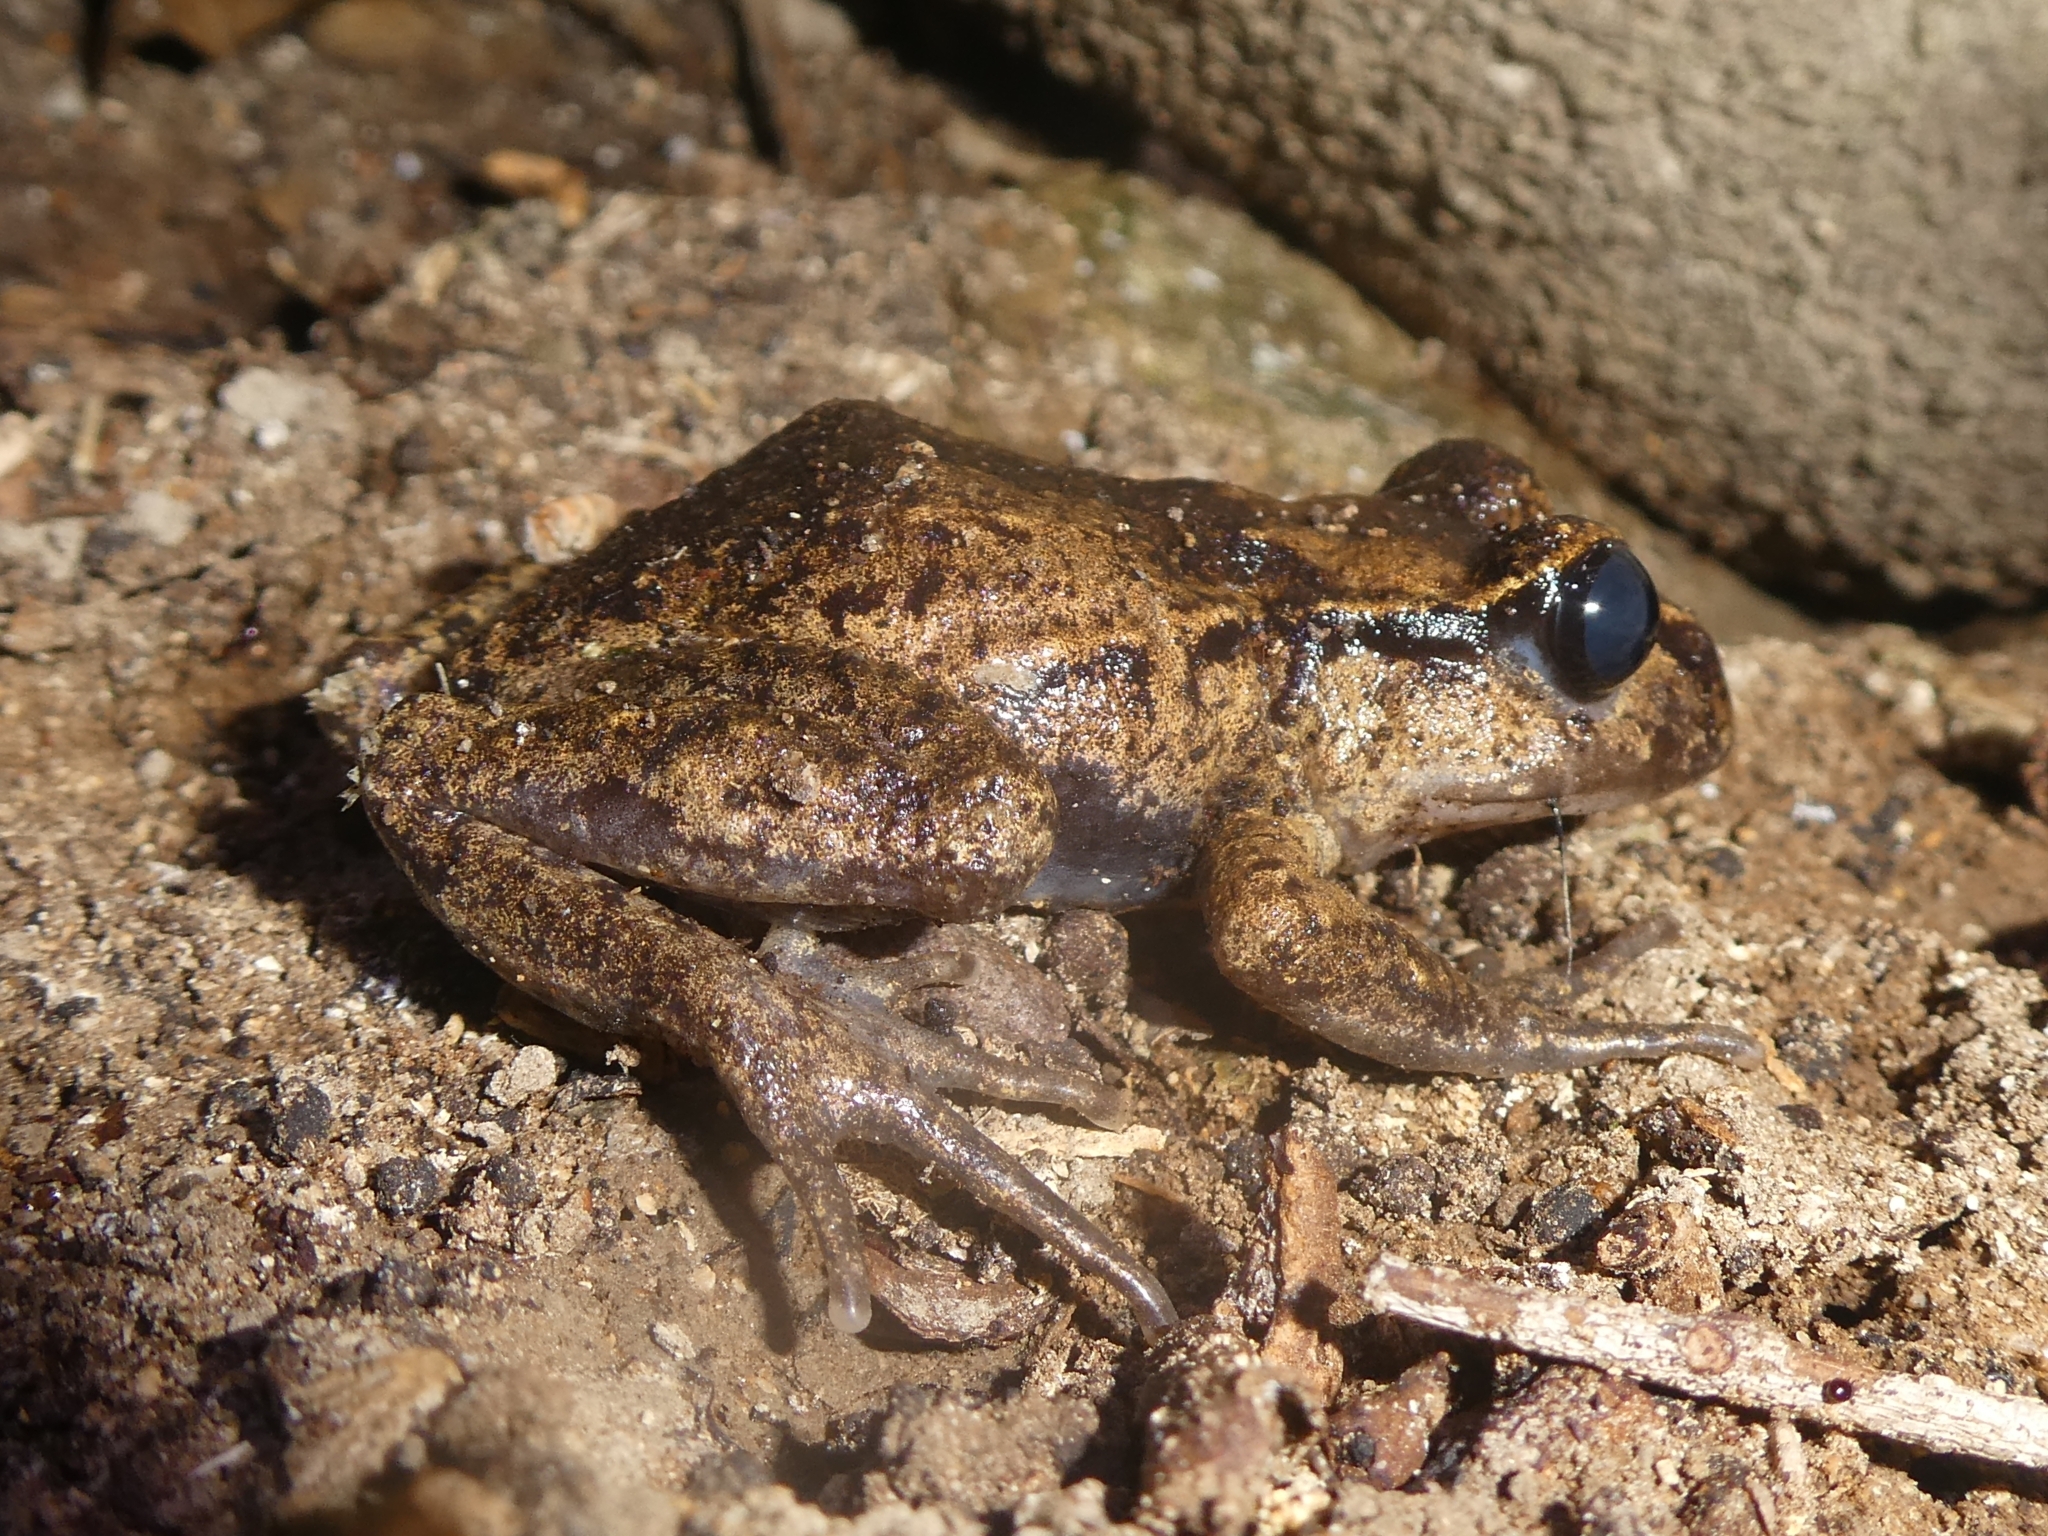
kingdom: Animalia
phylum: Chordata
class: Amphibia
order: Anura
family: Leiopelmatidae
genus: Leiopelma
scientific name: Leiopelma hamiltoni
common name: Hamiltons frog
